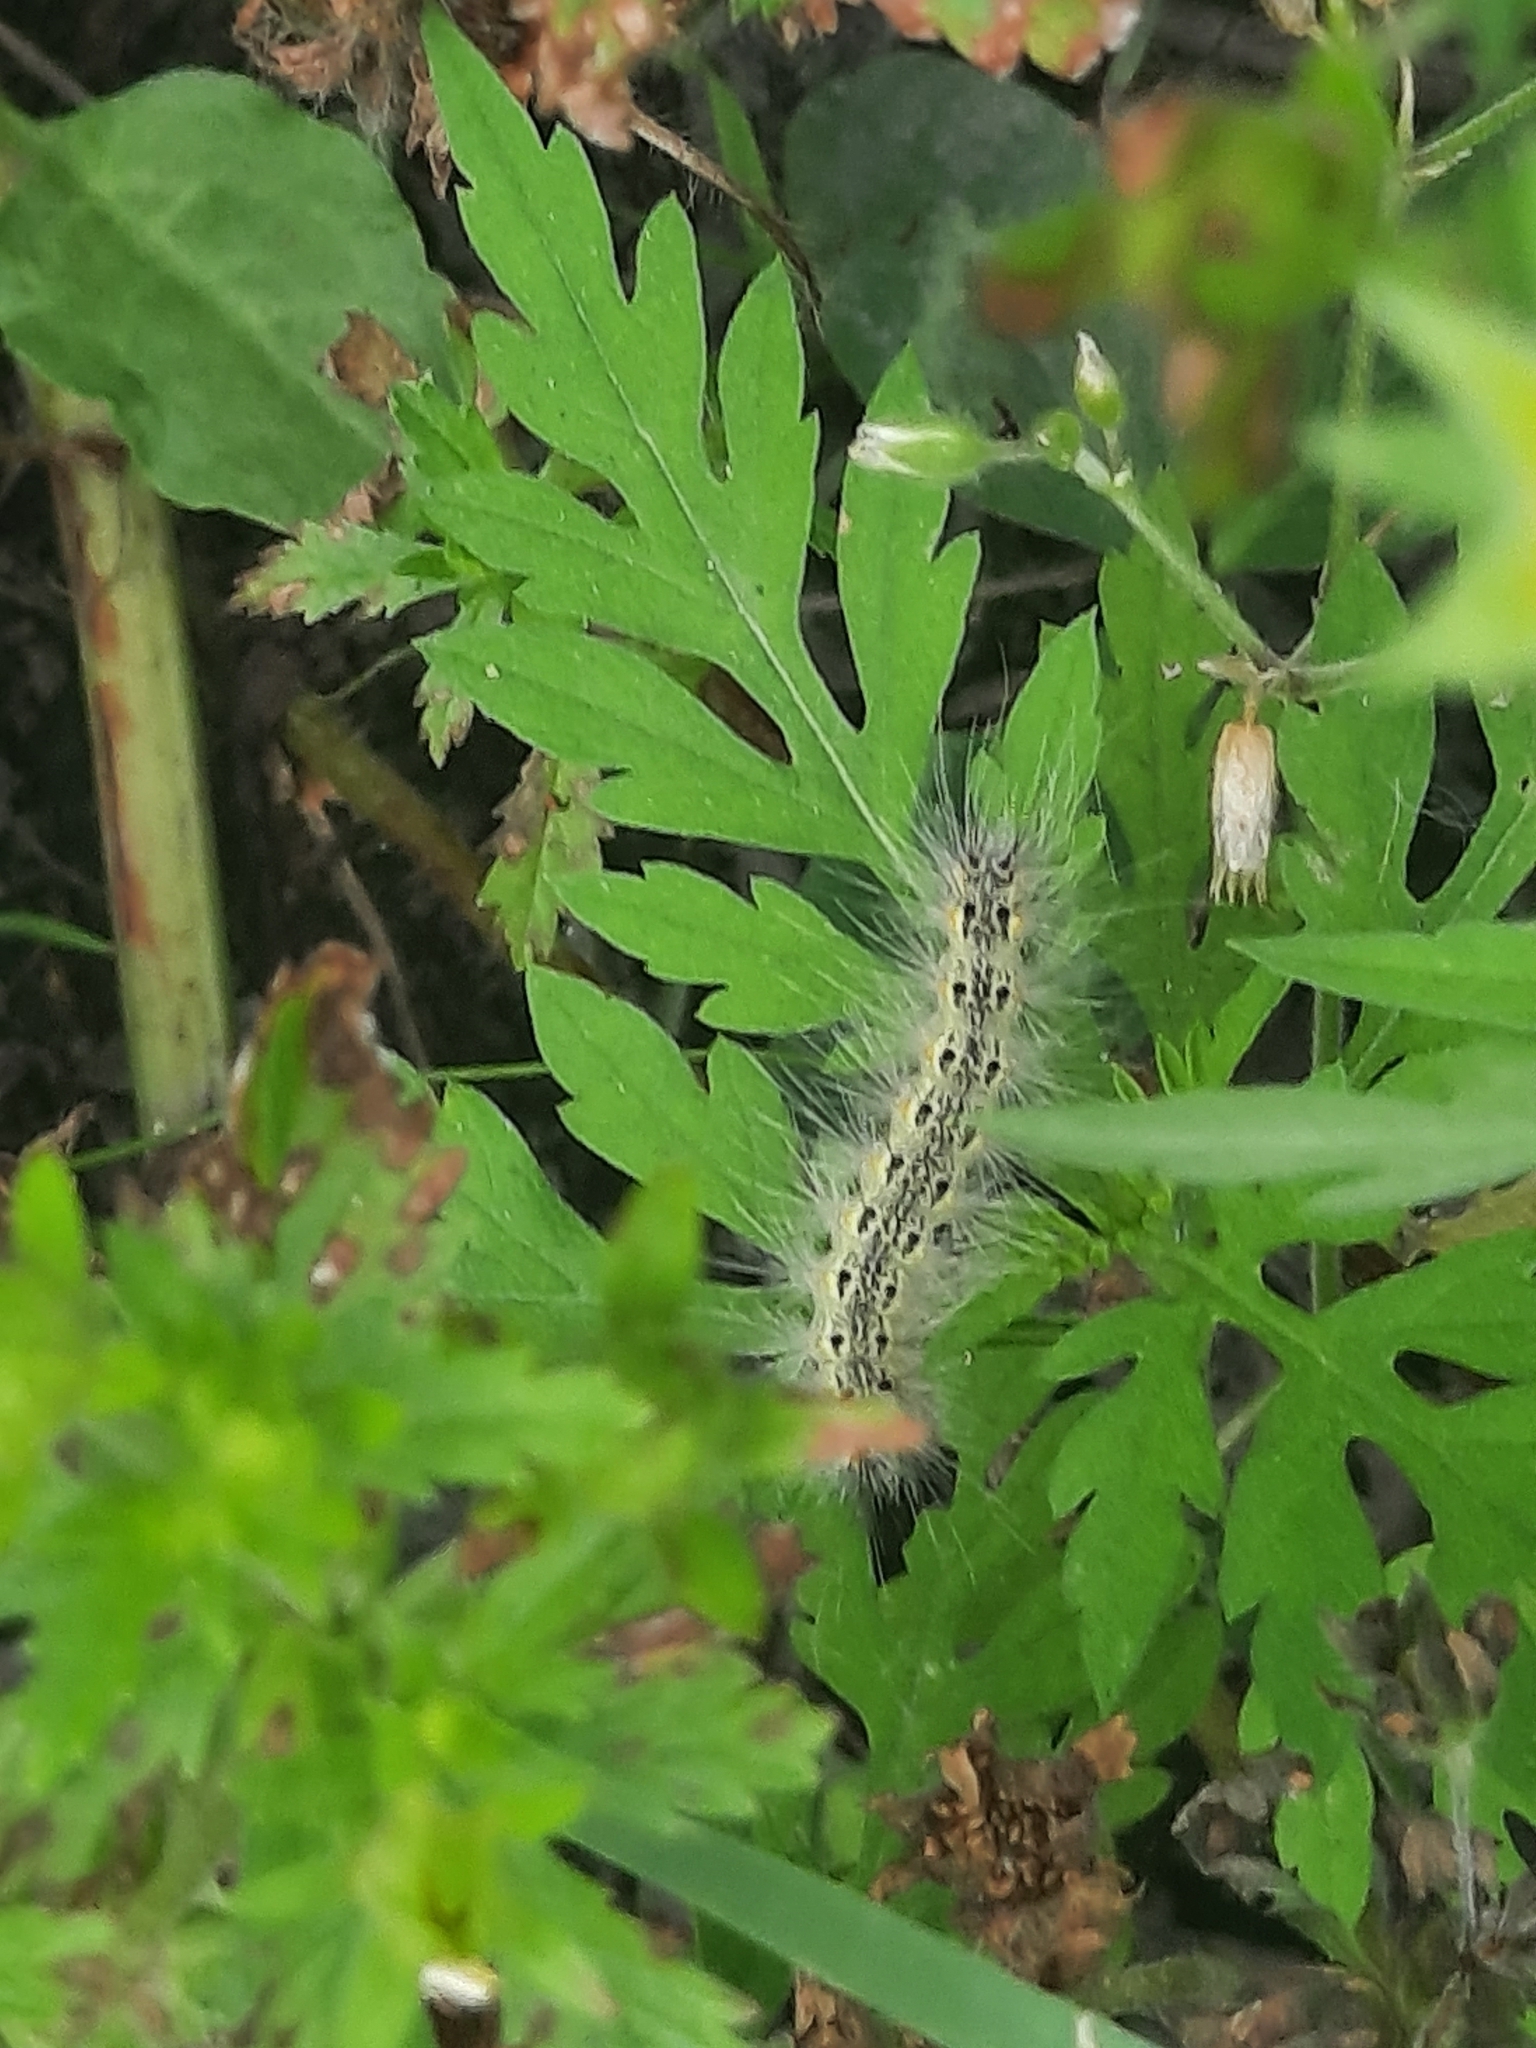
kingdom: Animalia
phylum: Arthropoda
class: Insecta
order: Lepidoptera
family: Erebidae
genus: Hyphantria
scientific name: Hyphantria cunea
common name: American white moth
